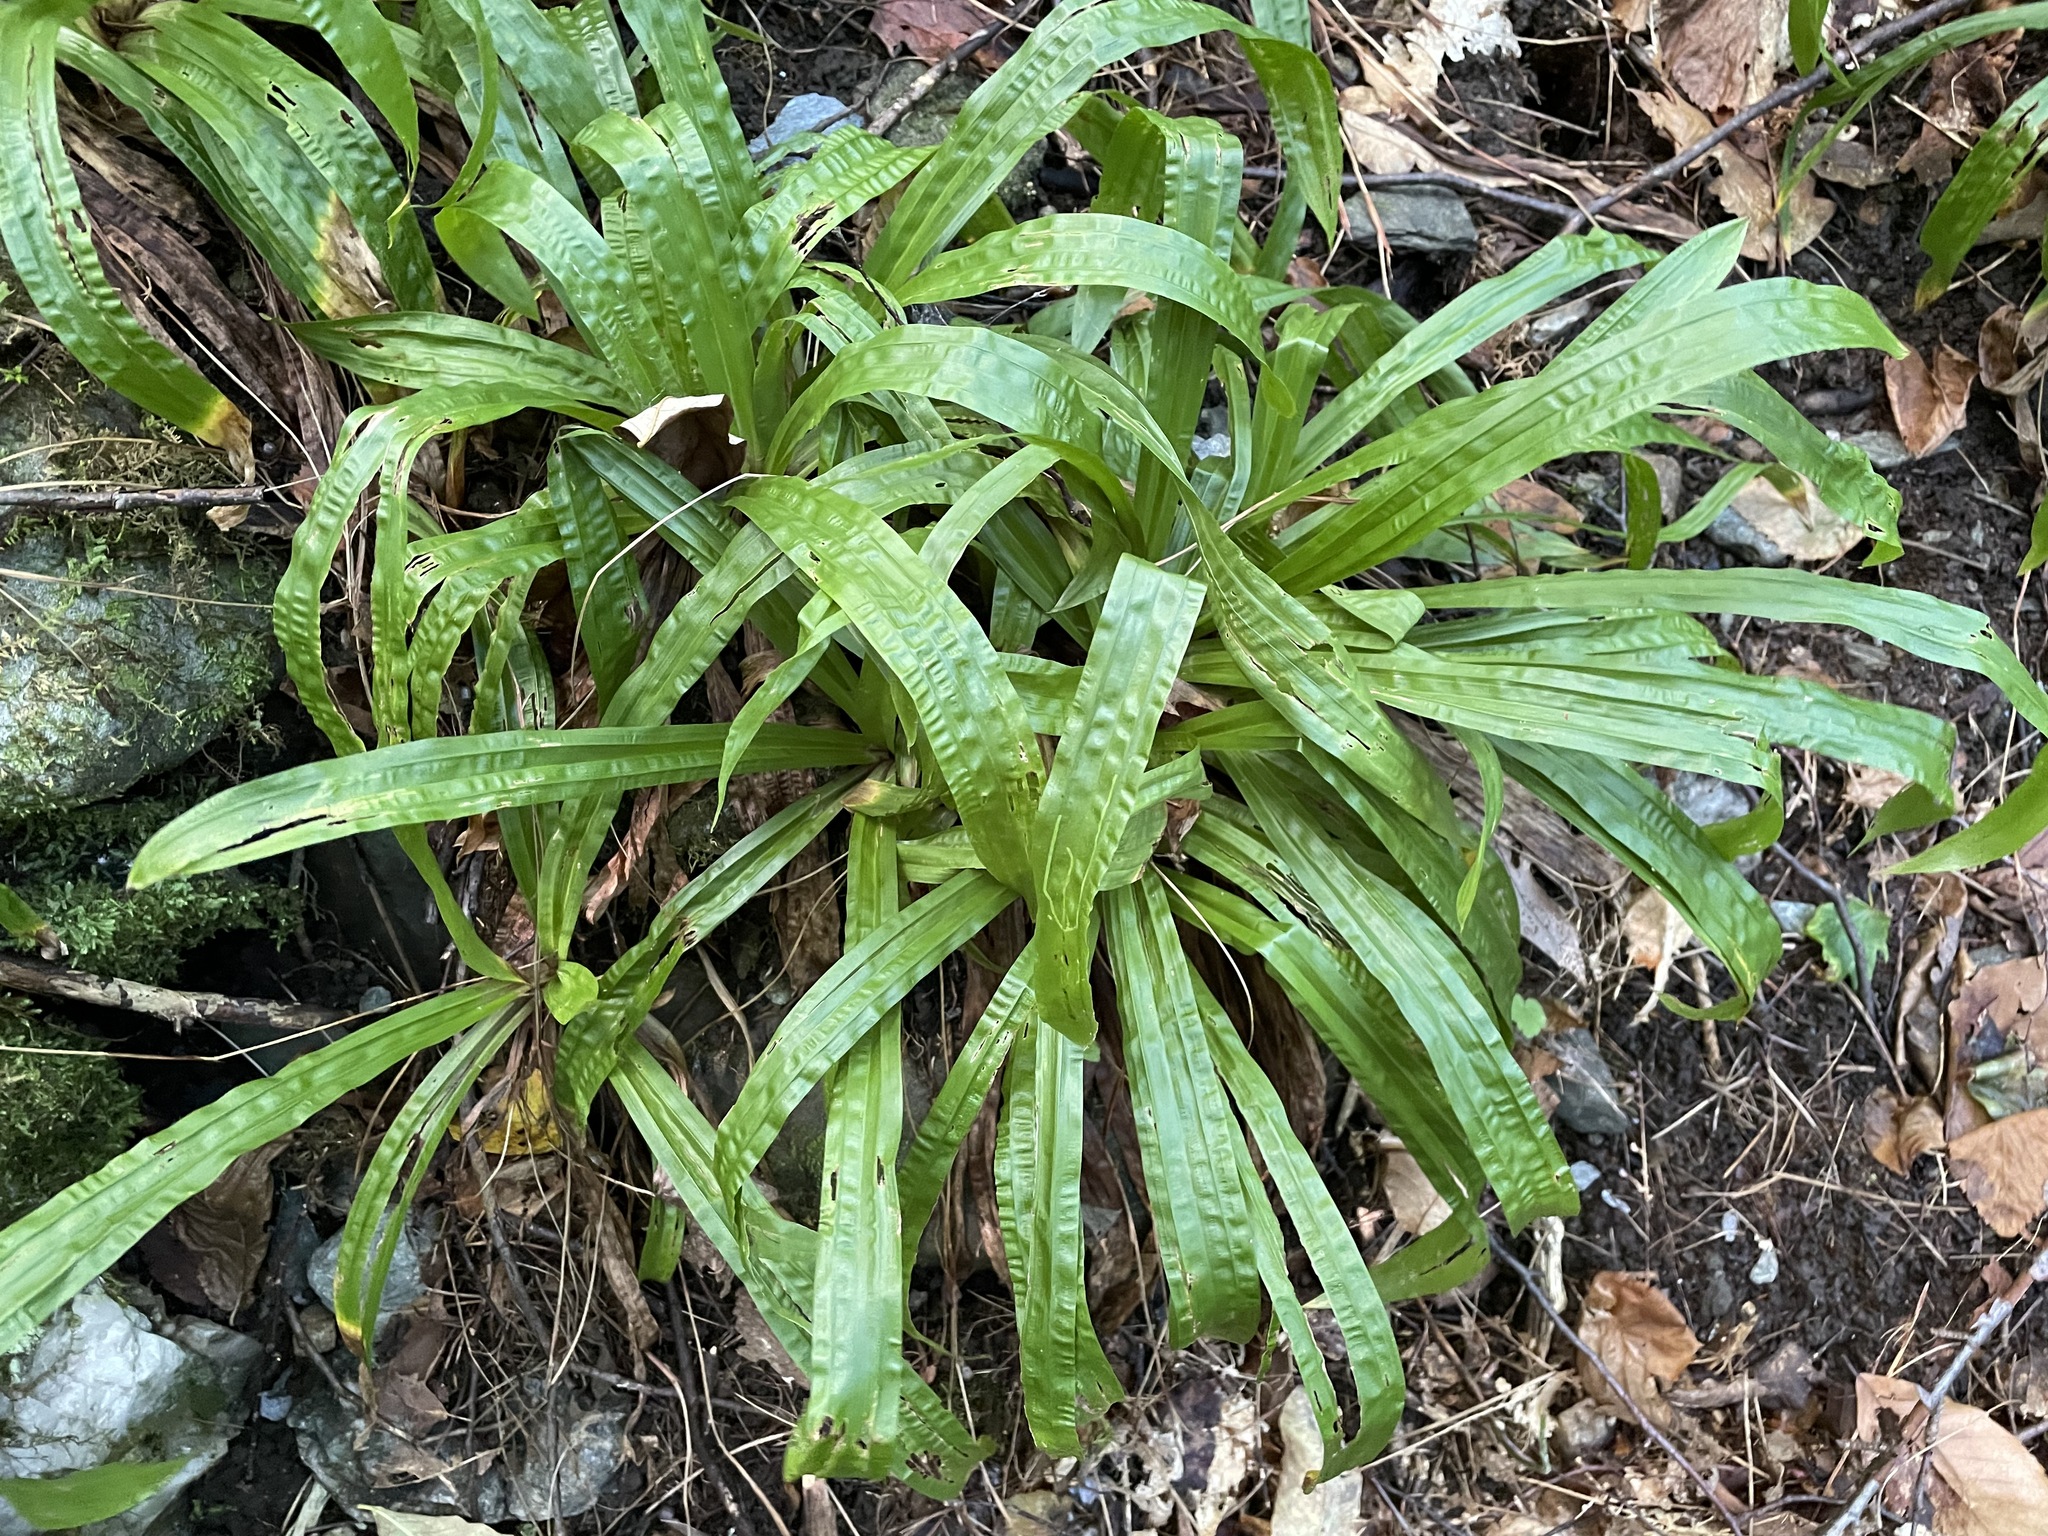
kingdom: Plantae
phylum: Tracheophyta
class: Liliopsida
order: Poales
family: Cyperaceae
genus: Carex
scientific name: Carex plantaginea
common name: Plantain-leaved sedge
